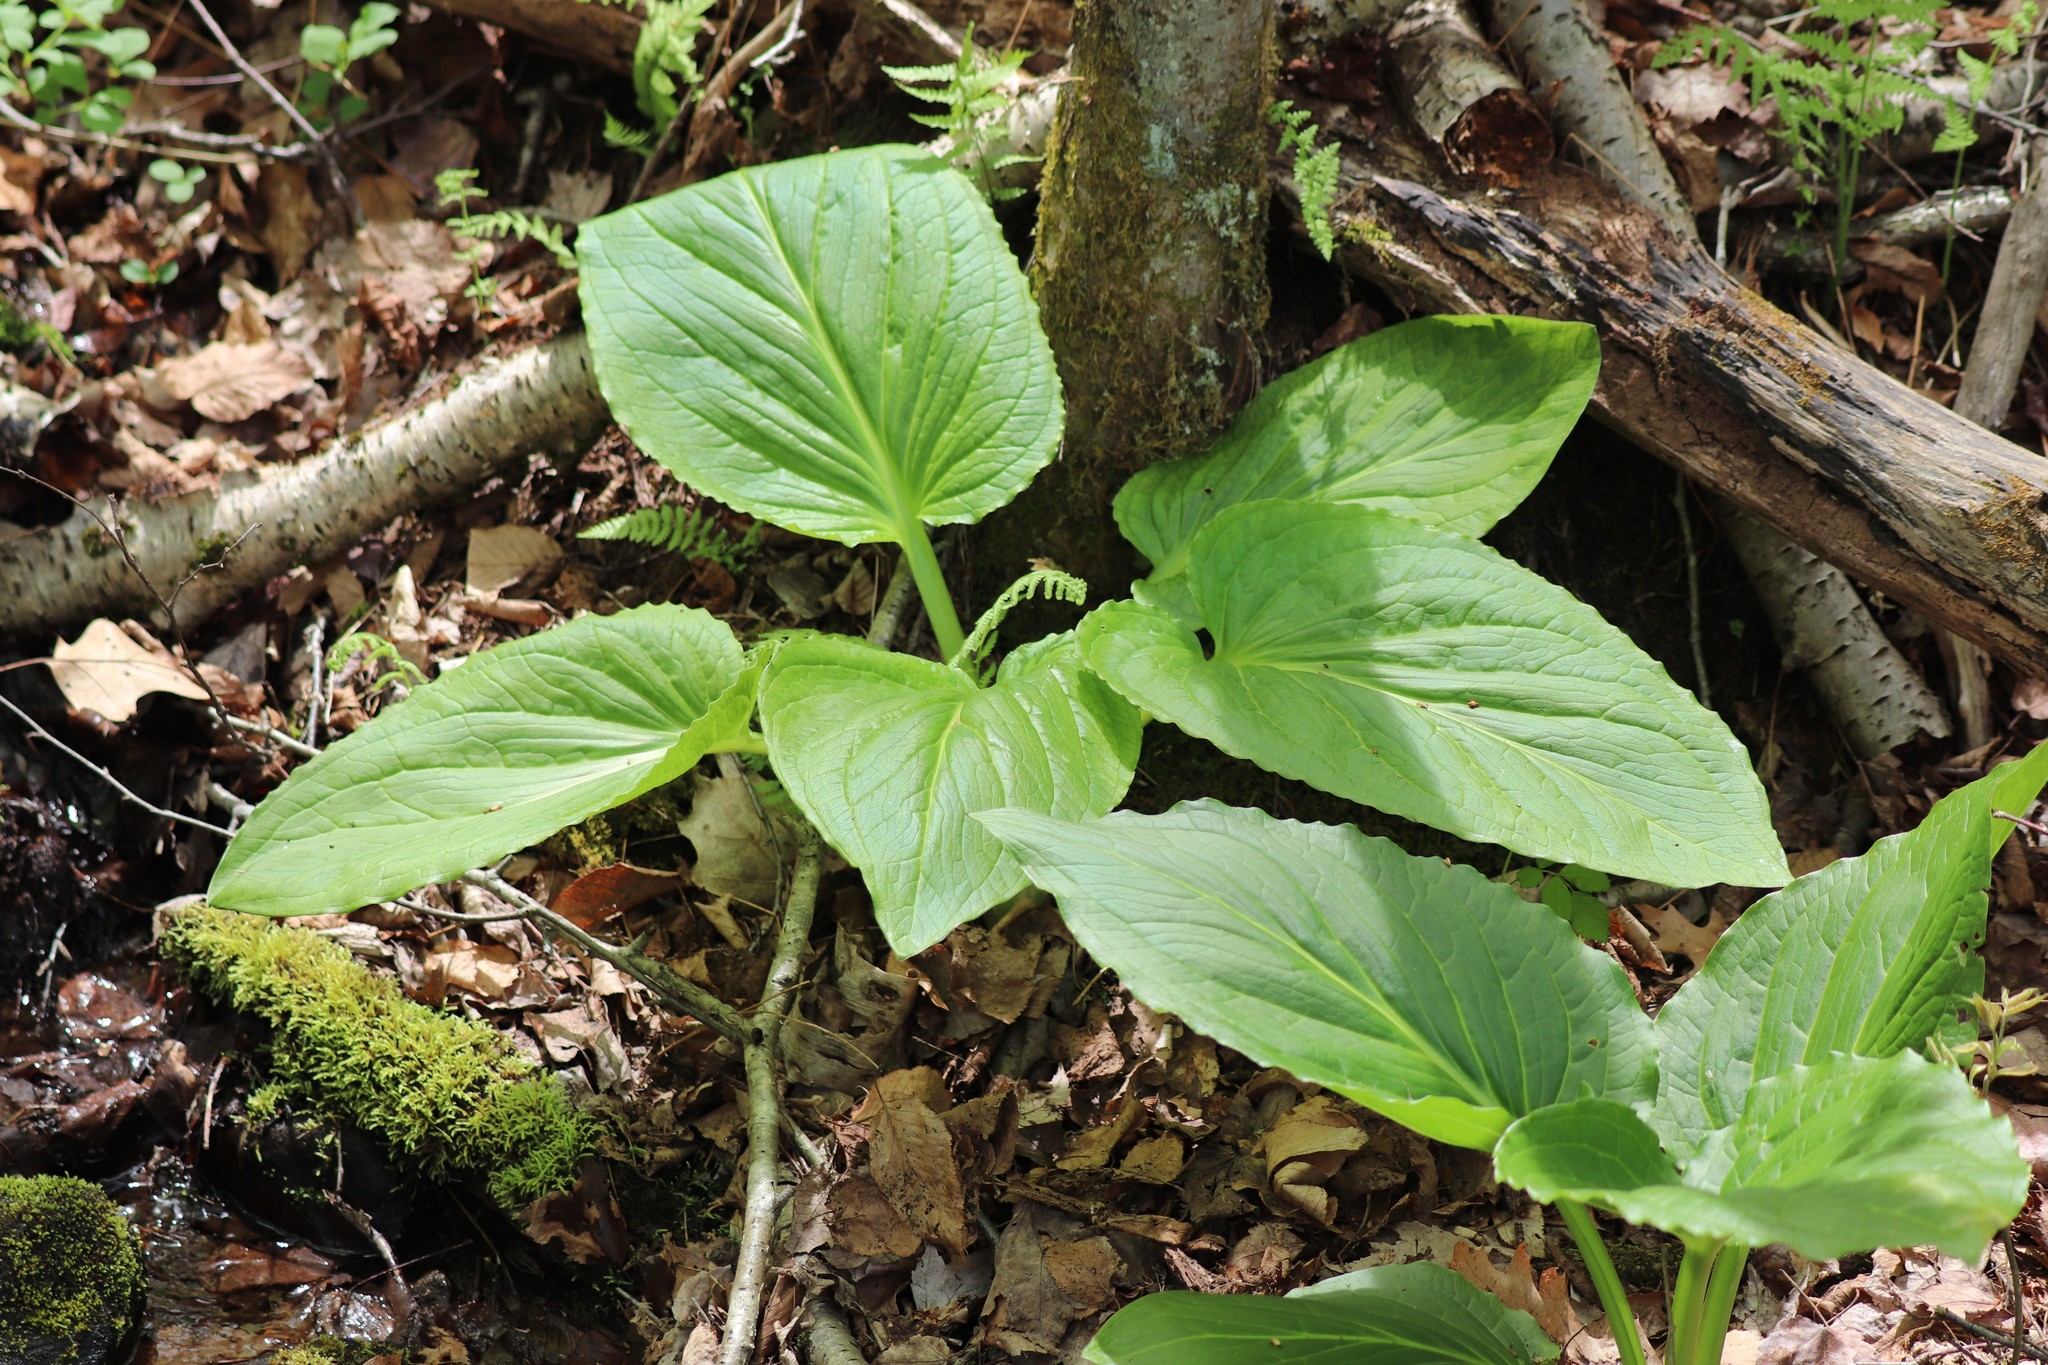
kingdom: Plantae
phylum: Tracheophyta
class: Liliopsida
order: Alismatales
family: Araceae
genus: Symplocarpus
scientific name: Symplocarpus foetidus
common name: Eastern skunk cabbage
